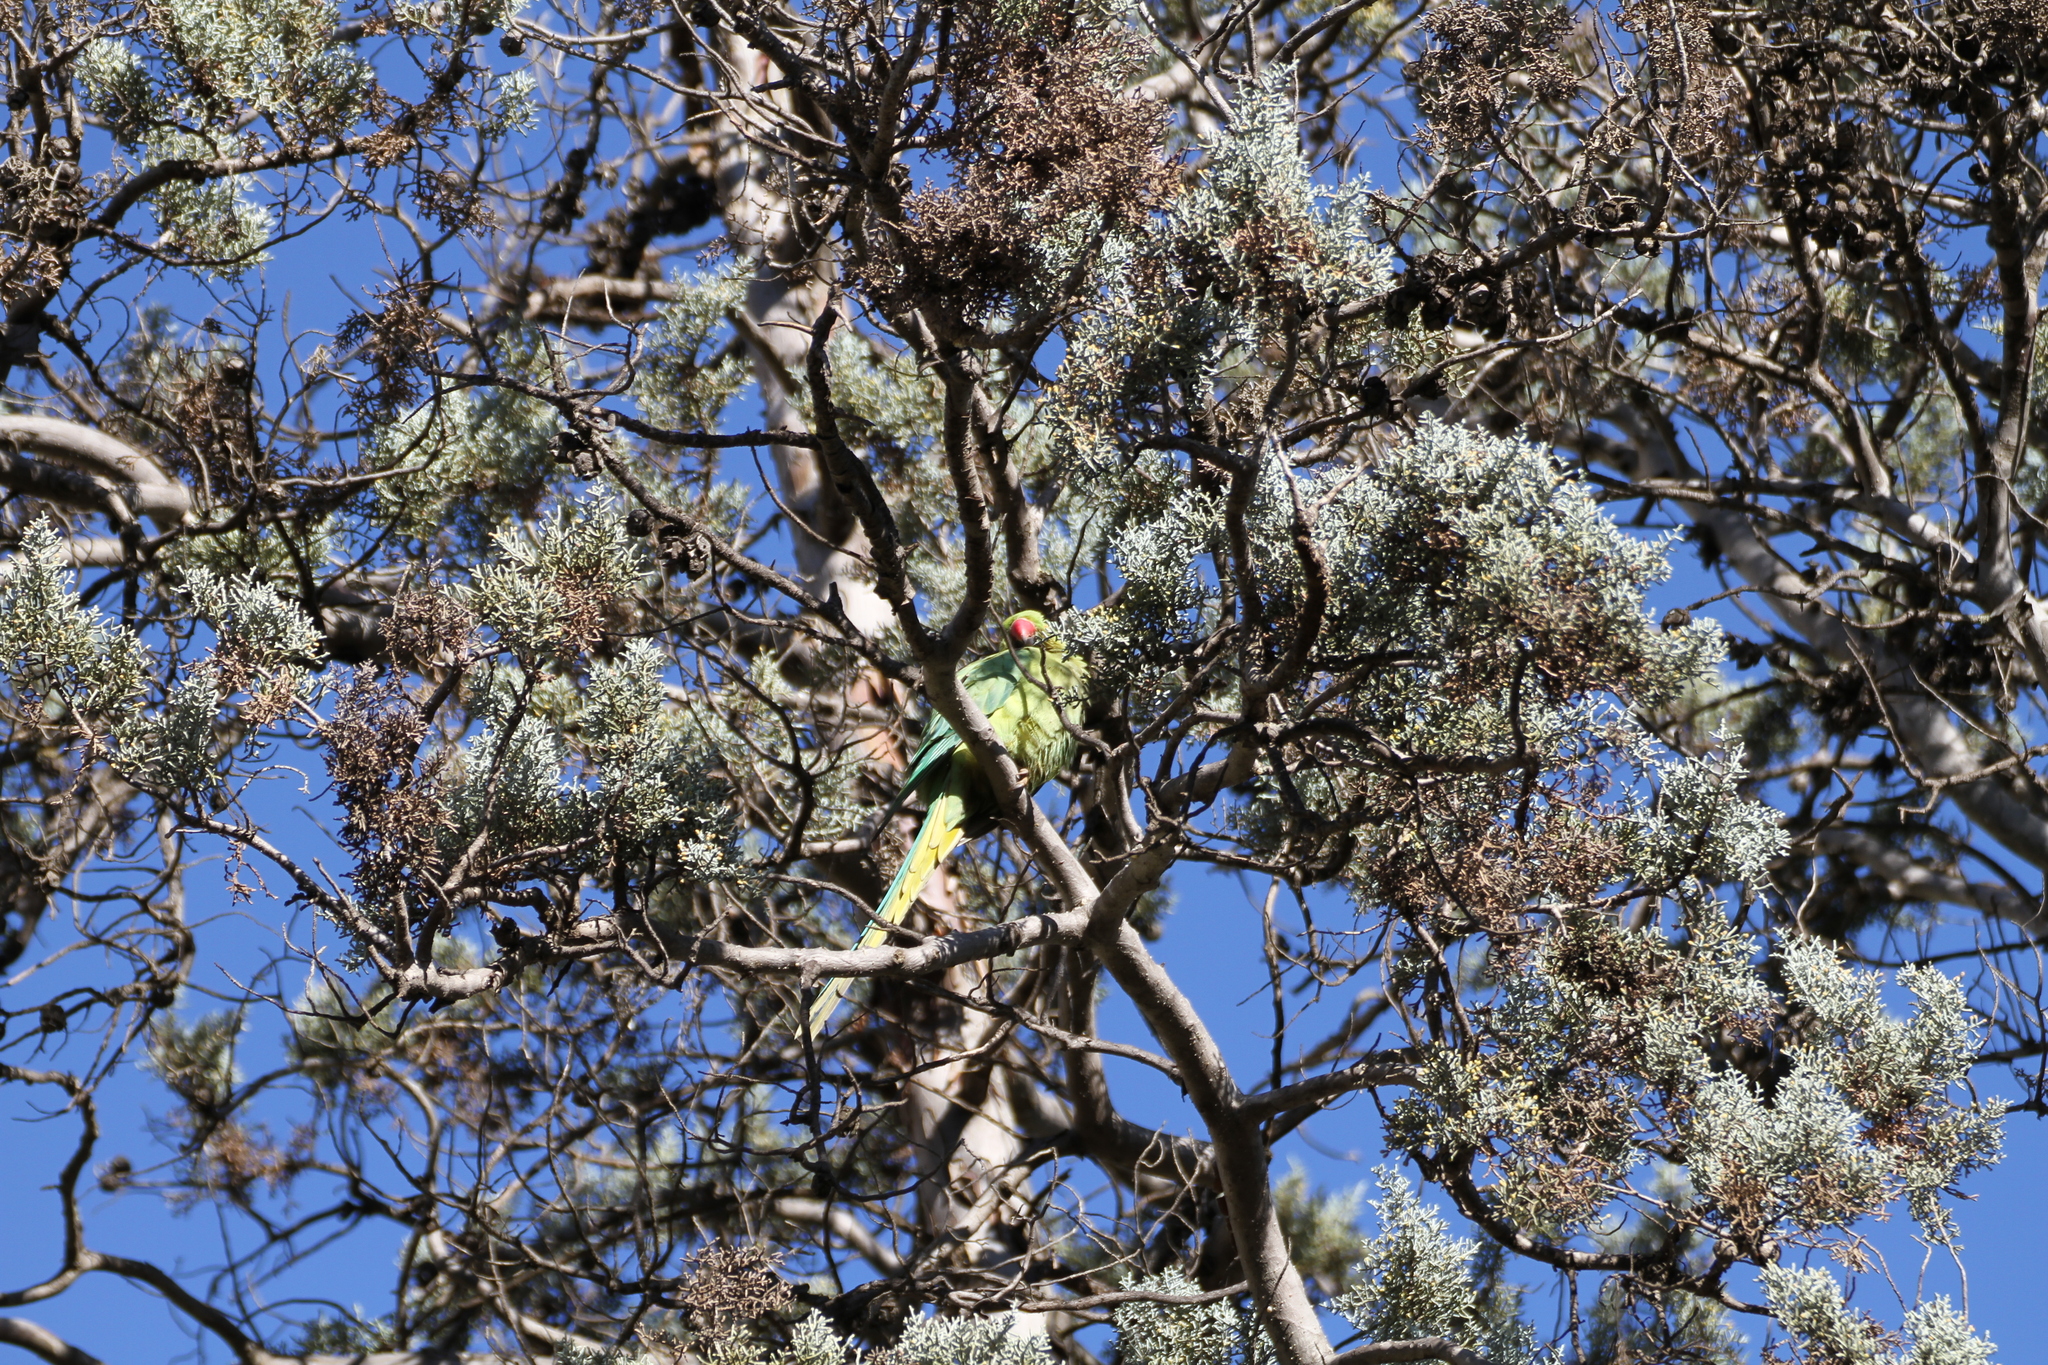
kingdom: Animalia
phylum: Chordata
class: Aves
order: Psittaciformes
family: Psittacidae
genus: Psittacula
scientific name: Psittacula krameri
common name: Rose-ringed parakeet
